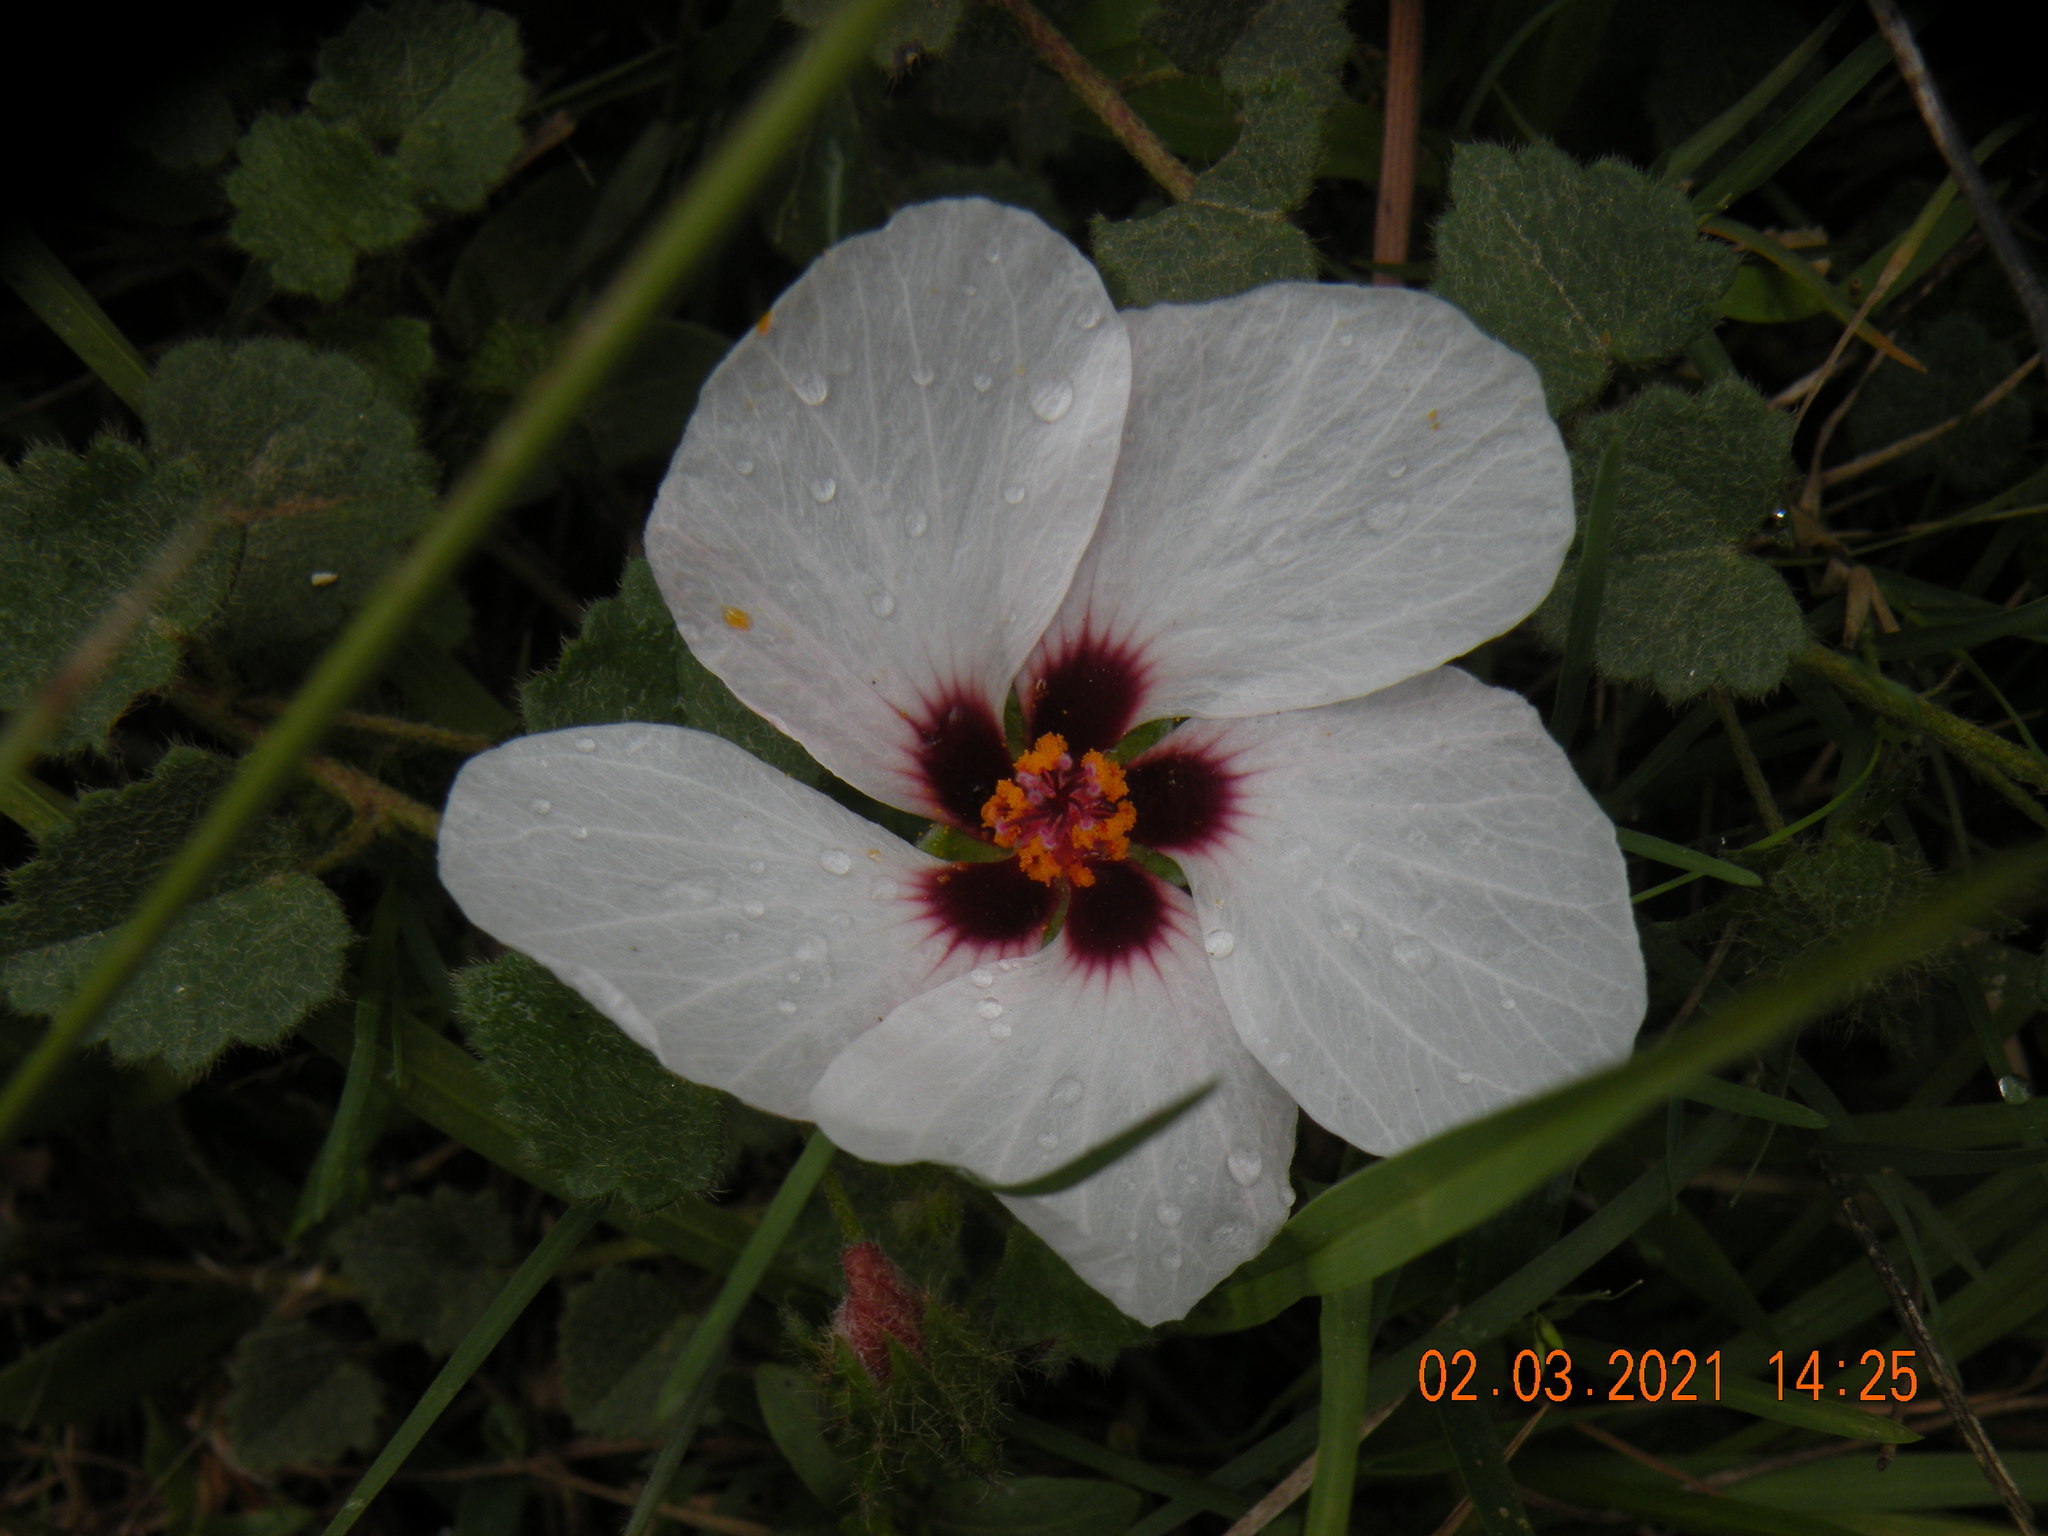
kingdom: Plantae
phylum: Tracheophyta
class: Magnoliopsida
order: Malvales
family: Malvaceae
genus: Pavonia
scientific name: Pavonia hastata
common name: Spearleaf swampmallow
